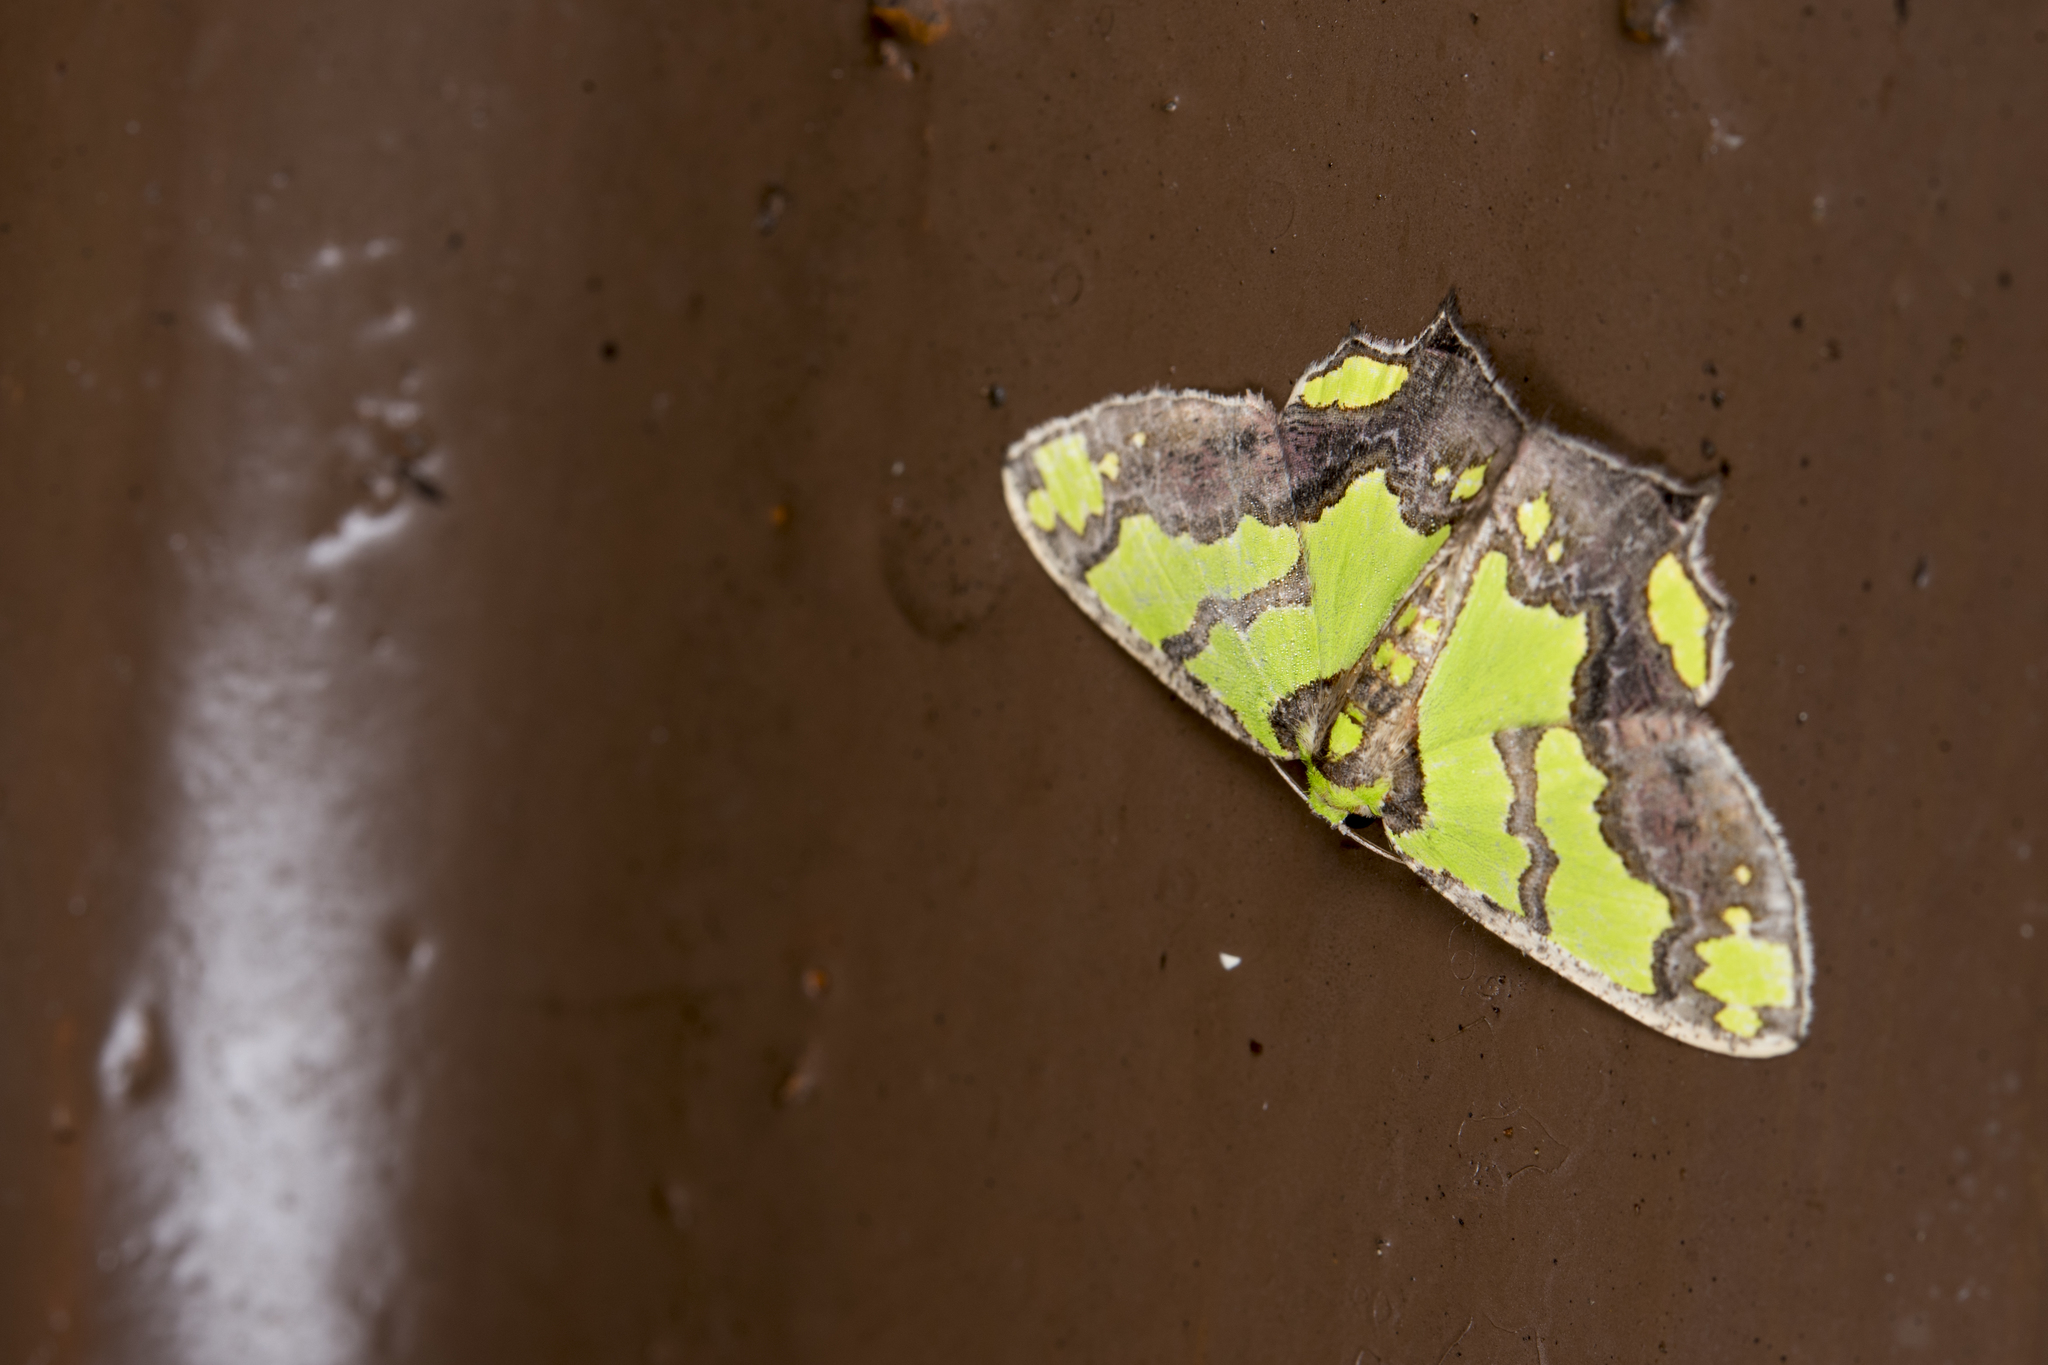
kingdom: Animalia
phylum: Arthropoda
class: Insecta
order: Lepidoptera
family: Geometridae
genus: Agathia
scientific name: Agathia hemithearia
